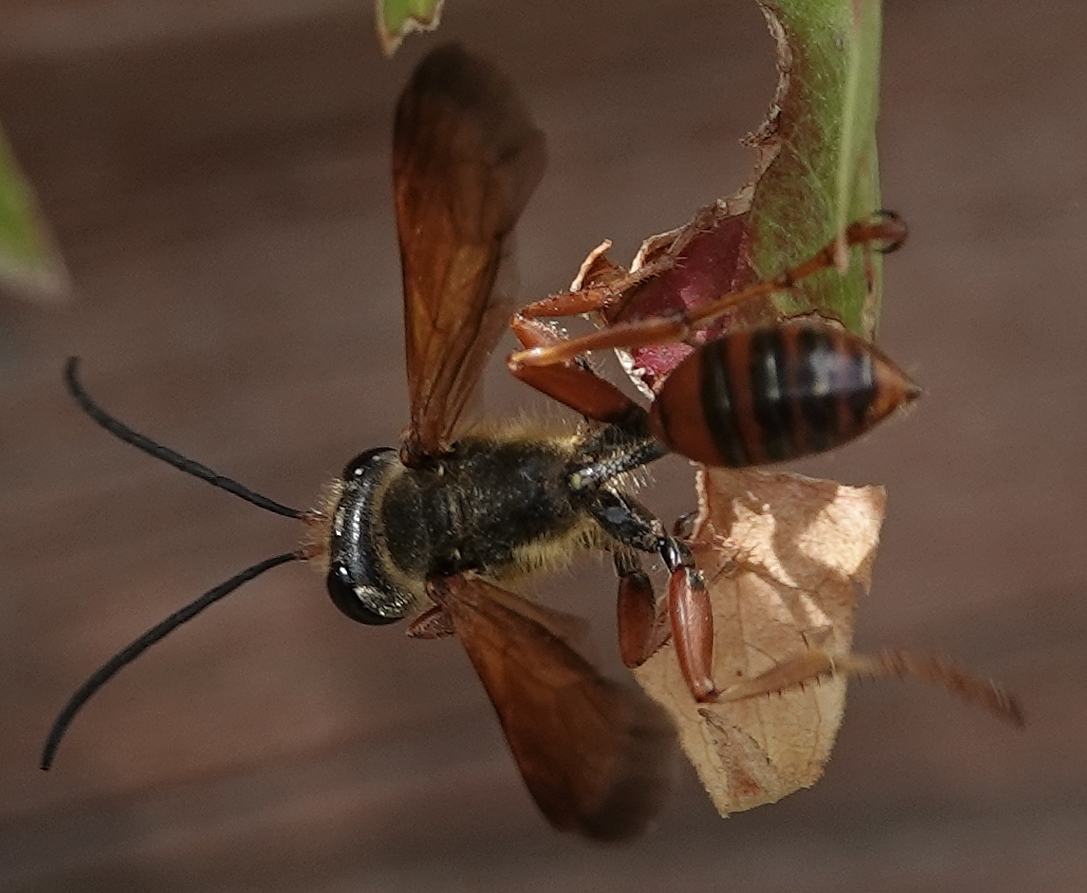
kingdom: Animalia
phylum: Arthropoda
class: Insecta
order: Hymenoptera
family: Sphecidae
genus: Isodontia
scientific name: Isodontia elegans
